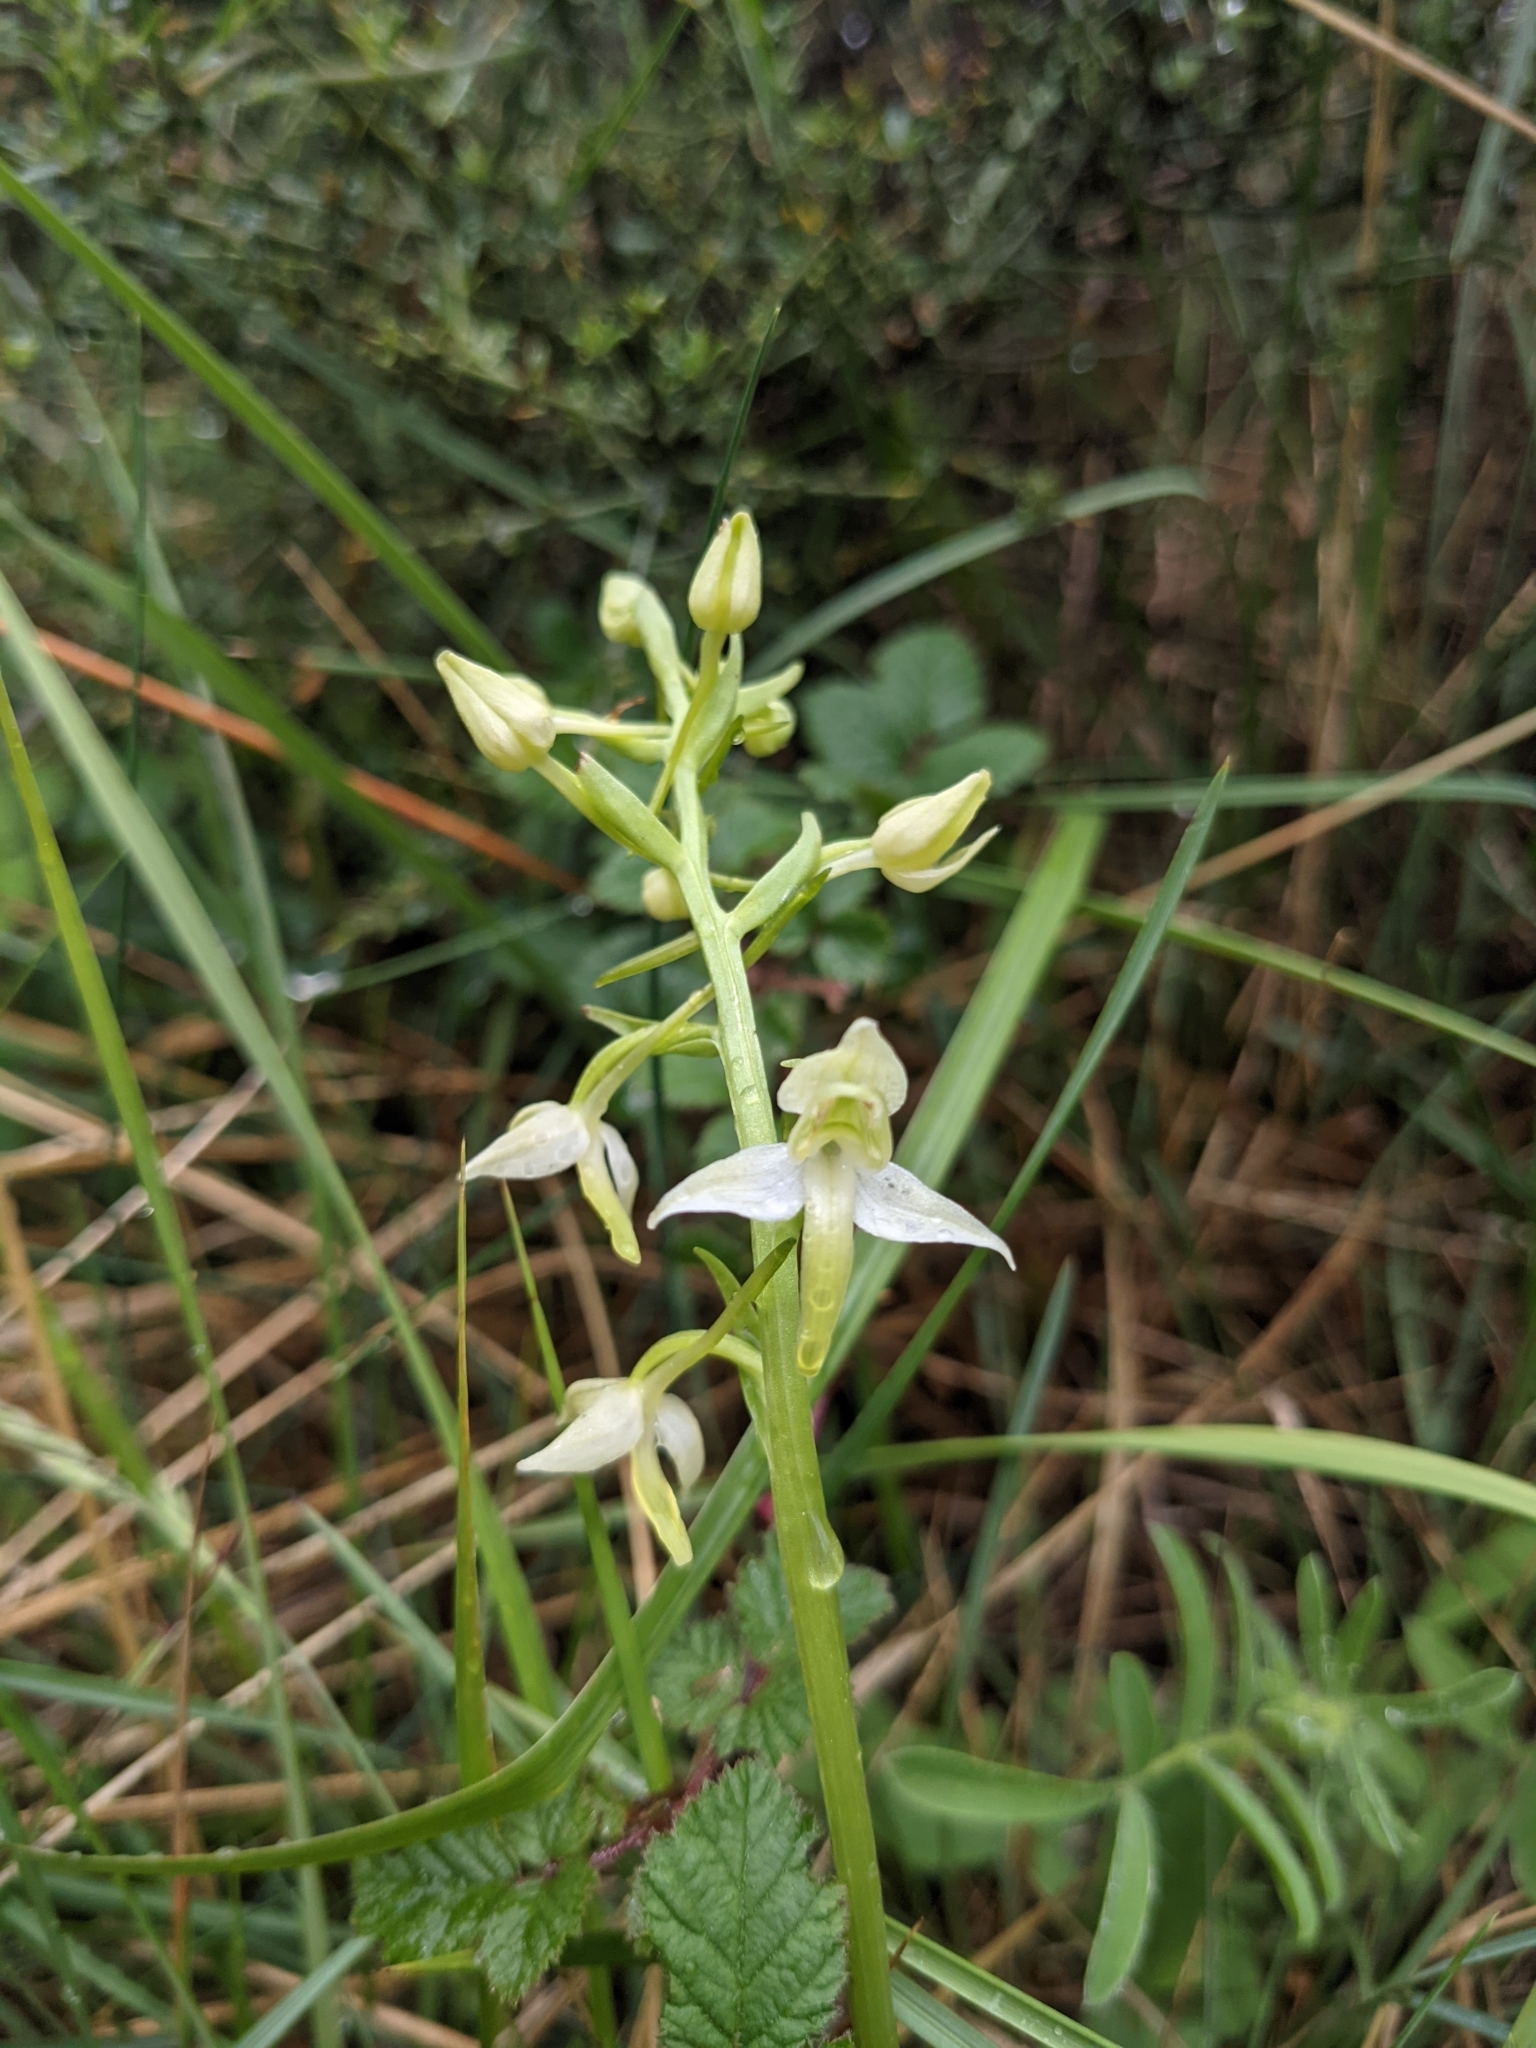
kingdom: Plantae
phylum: Tracheophyta
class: Liliopsida
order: Asparagales
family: Orchidaceae
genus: Platanthera
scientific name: Platanthera chlorantha
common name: Greater butterfly-orchid
